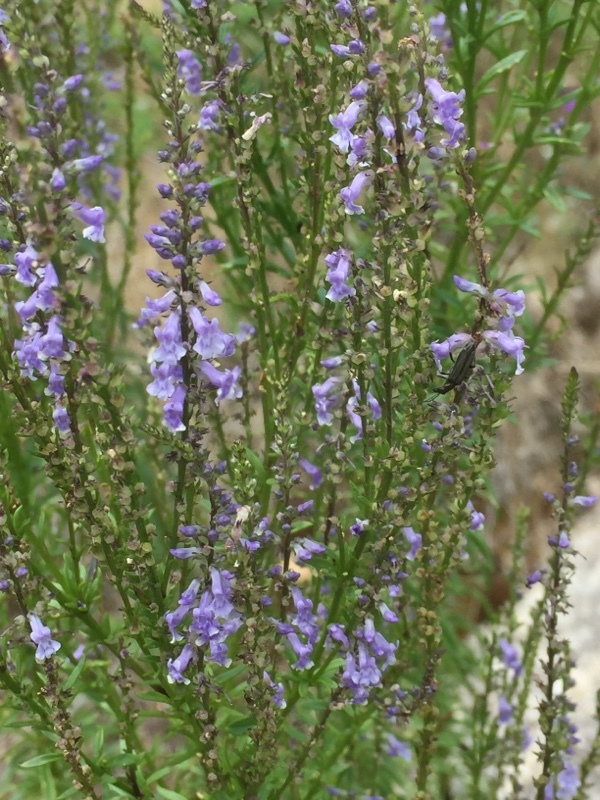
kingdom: Plantae
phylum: Tracheophyta
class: Magnoliopsida
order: Lamiales
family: Plantaginaceae
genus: Anarrhinum
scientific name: Anarrhinum bellidifolium
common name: Daisy-leaved toadflax
